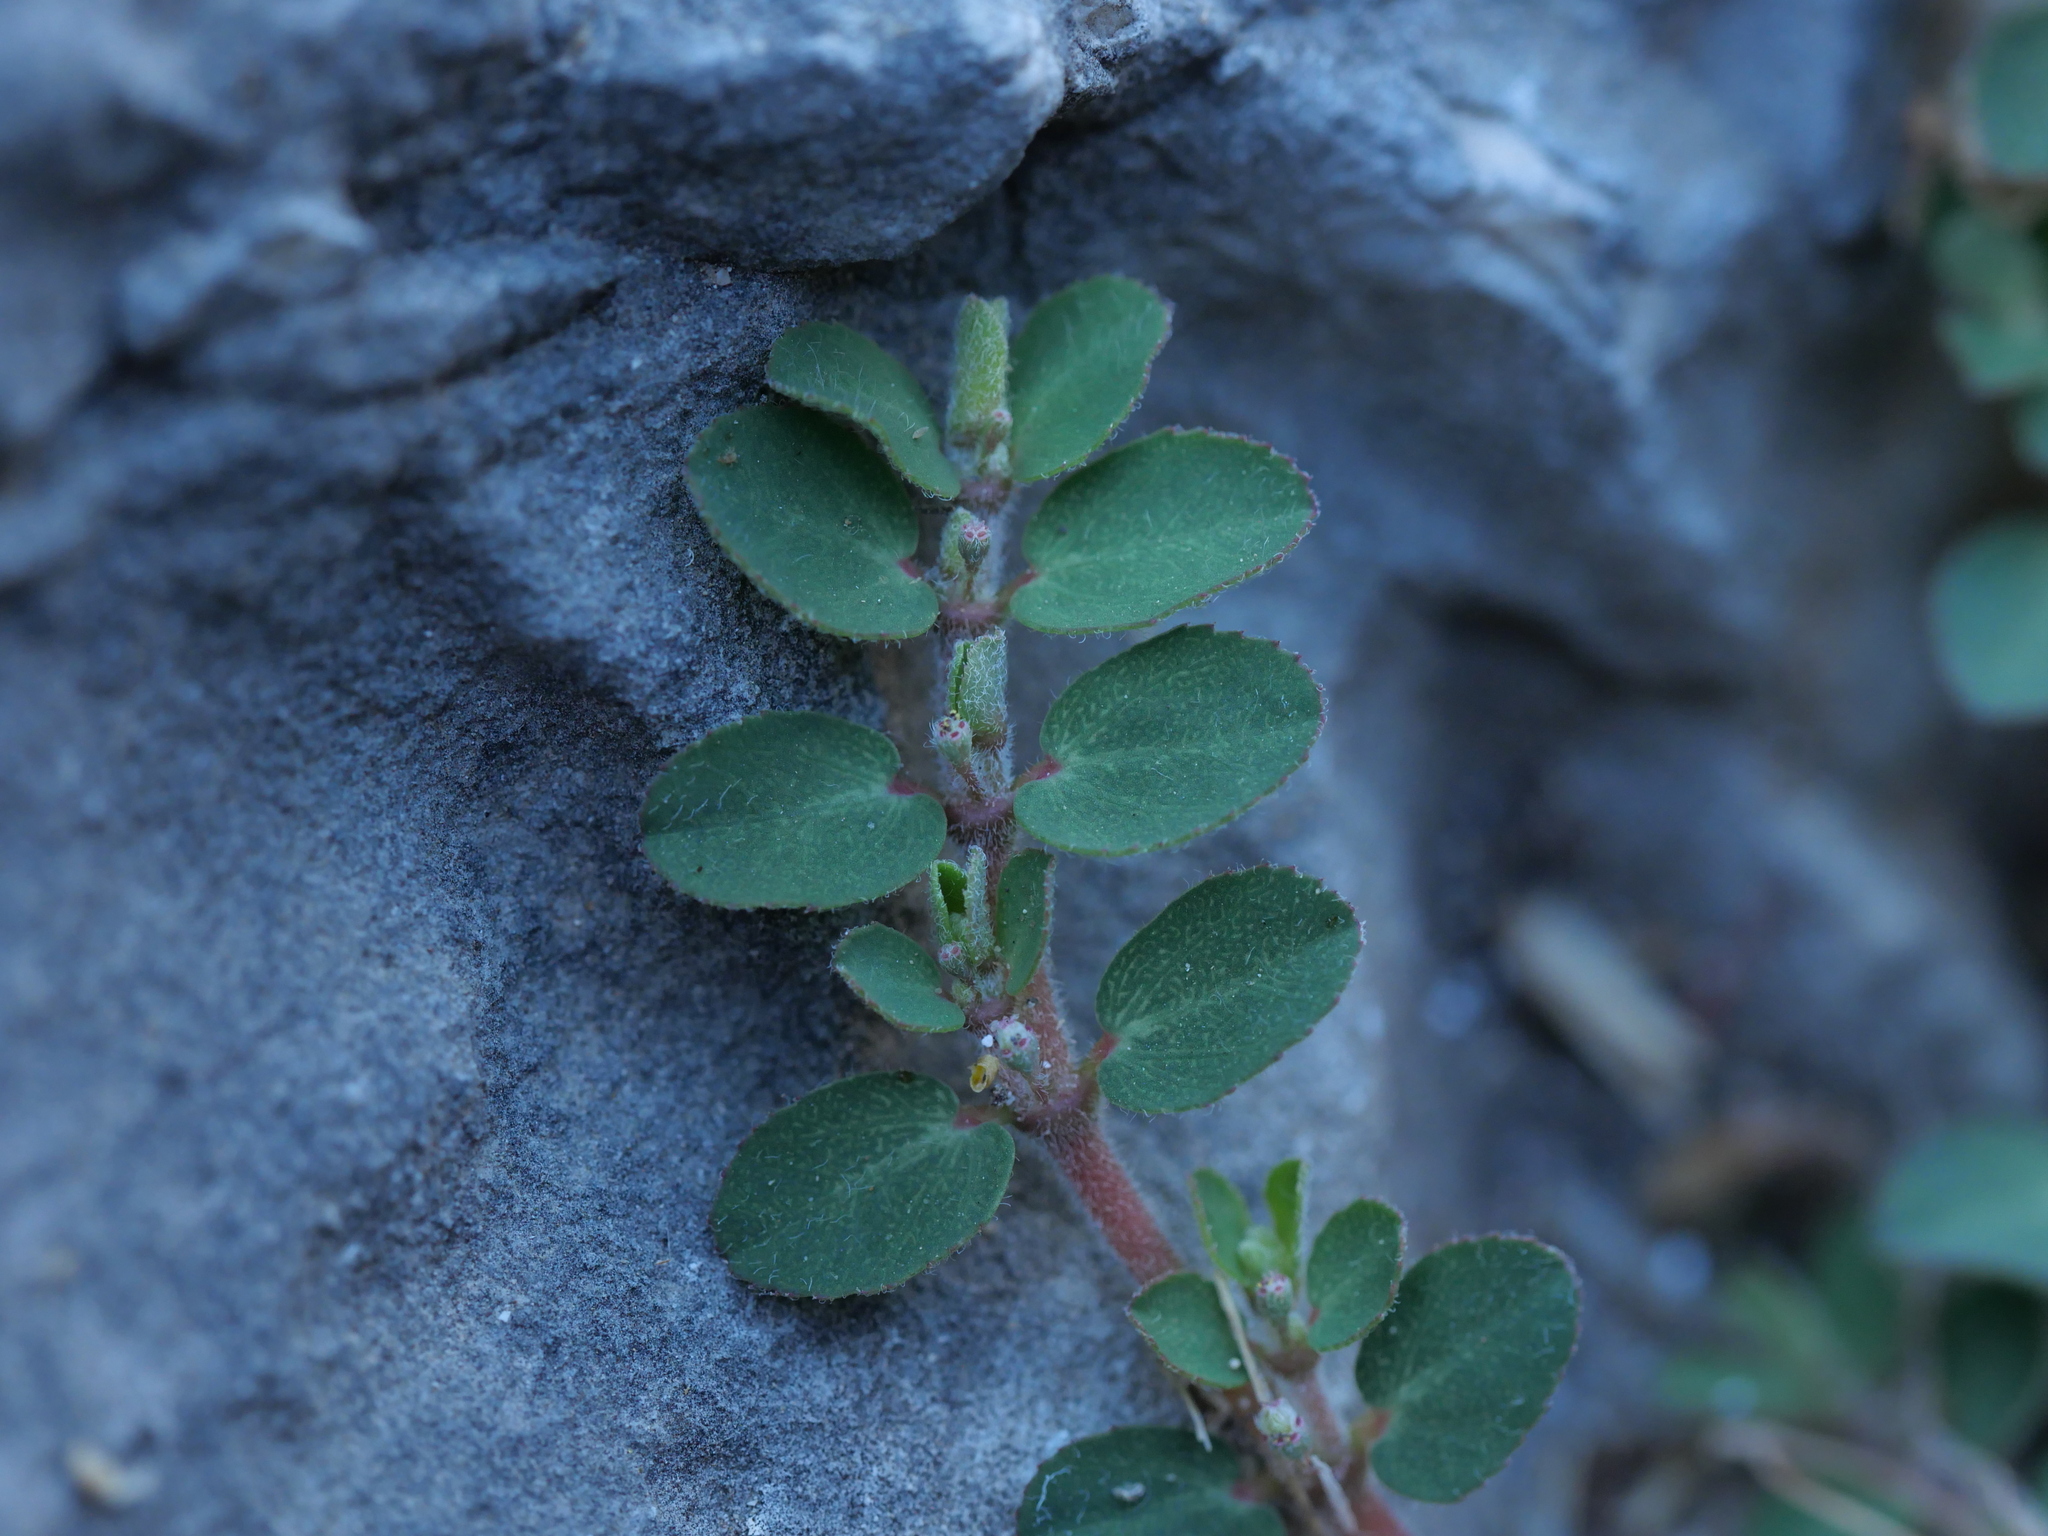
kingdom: Plantae
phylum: Tracheophyta
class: Magnoliopsida
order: Malpighiales
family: Euphorbiaceae
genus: Euphorbia
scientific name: Euphorbia prostrata
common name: Prostrate sandmat
